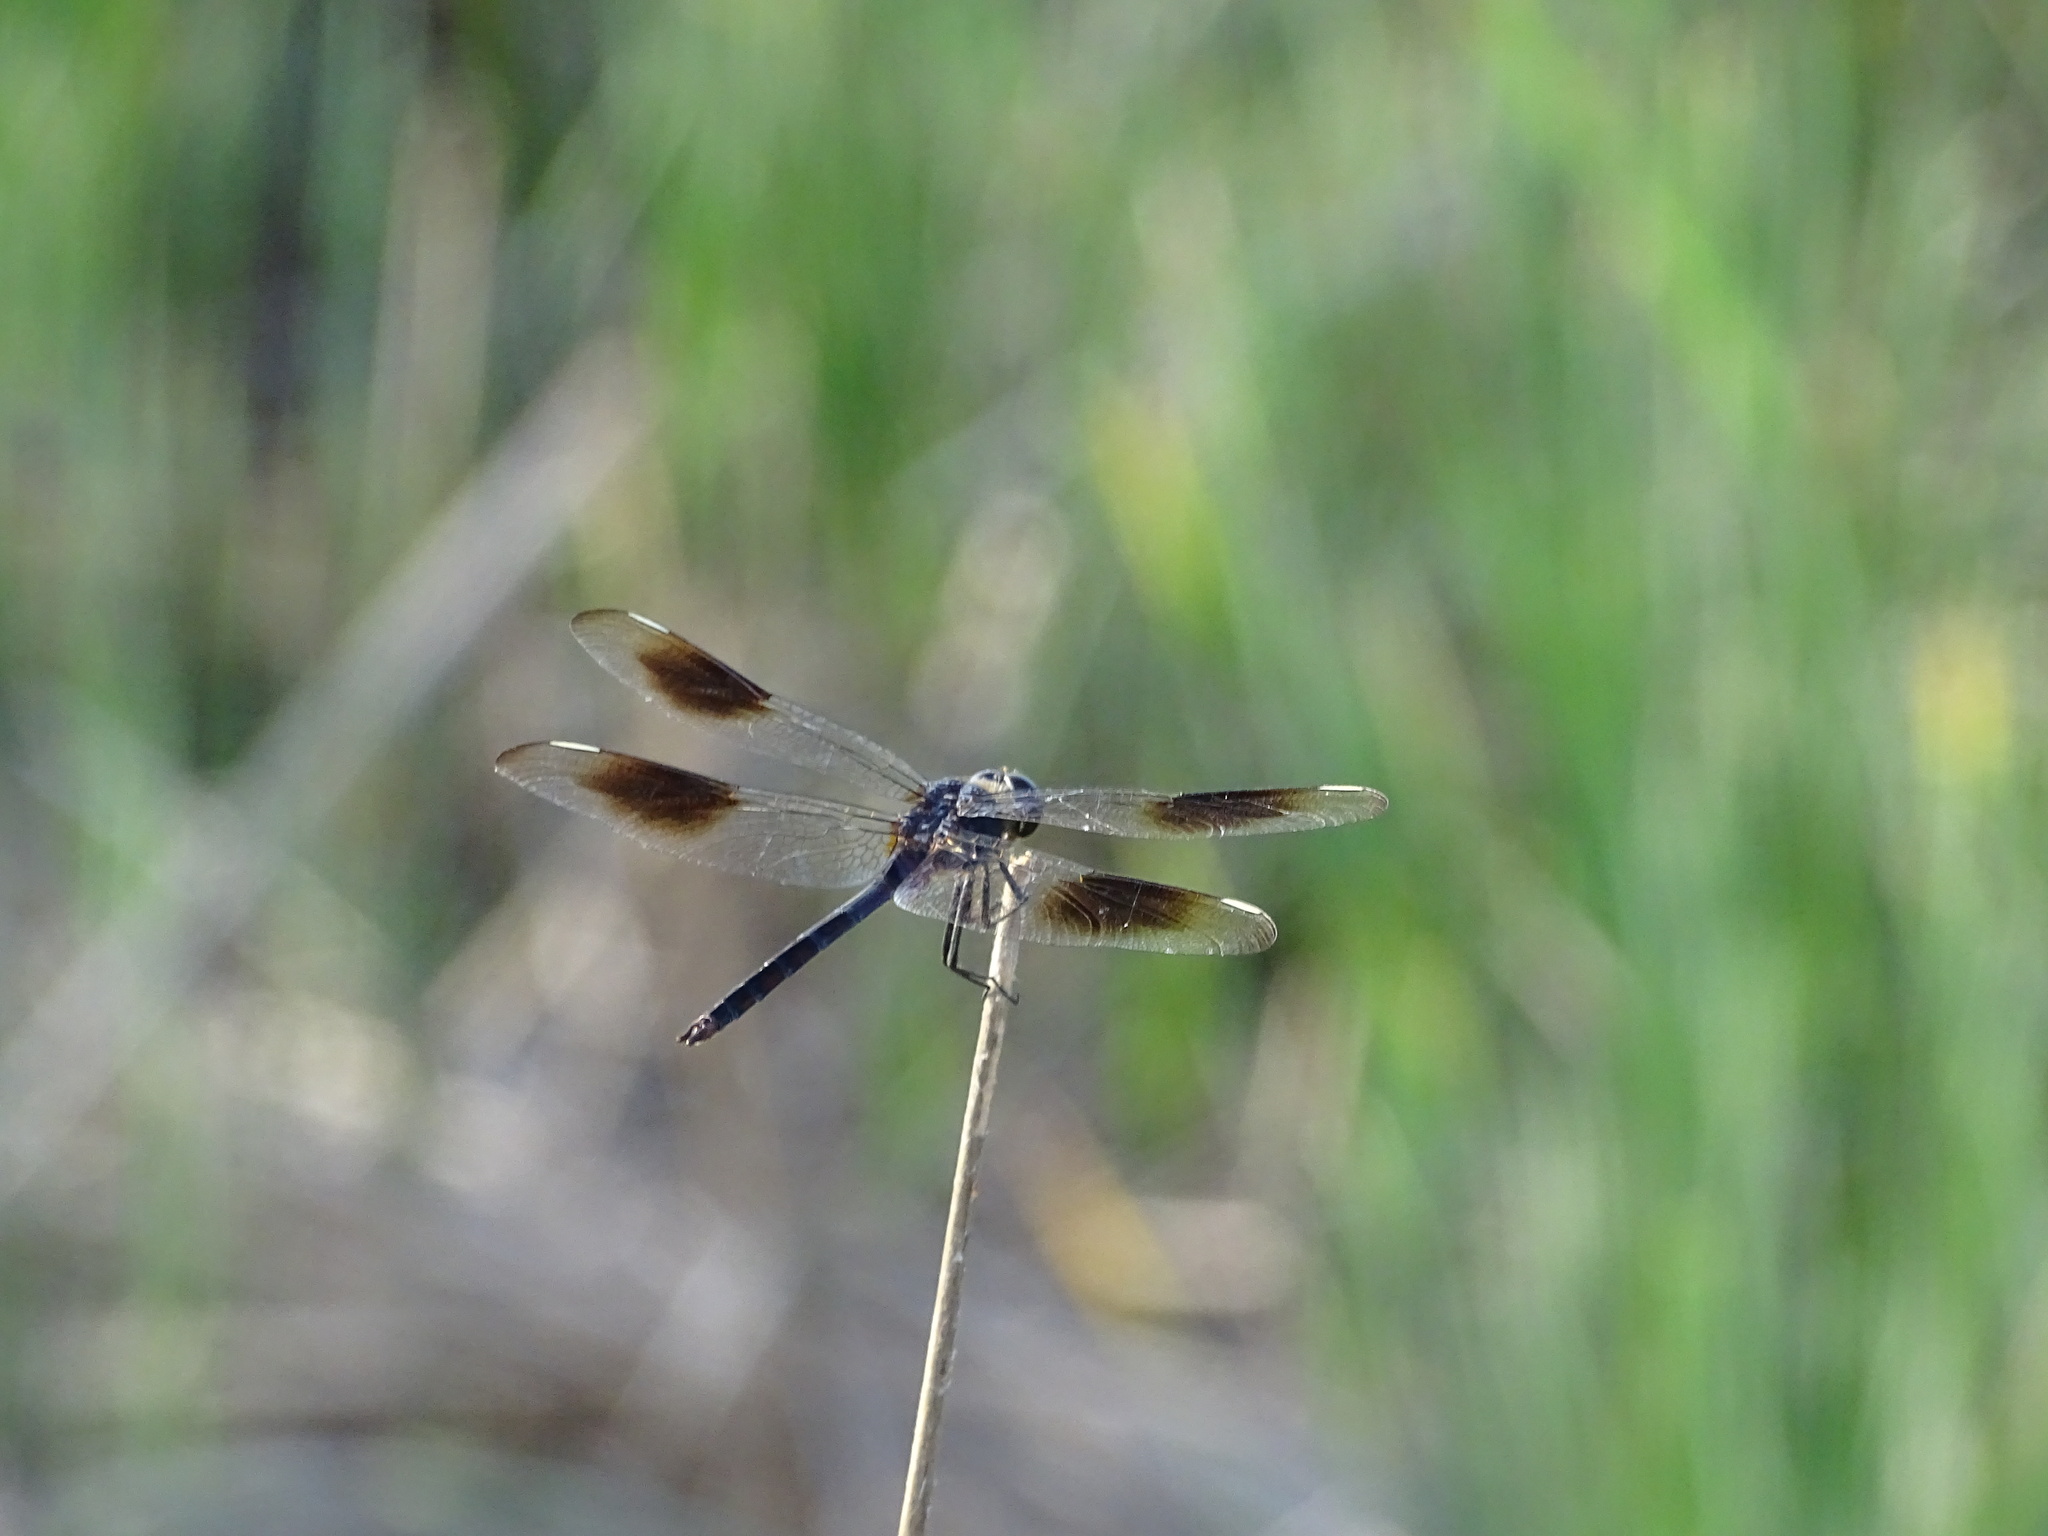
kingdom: Animalia
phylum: Arthropoda
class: Insecta
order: Odonata
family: Libellulidae
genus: Brachymesia
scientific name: Brachymesia gravida
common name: Four-spotted pennant
